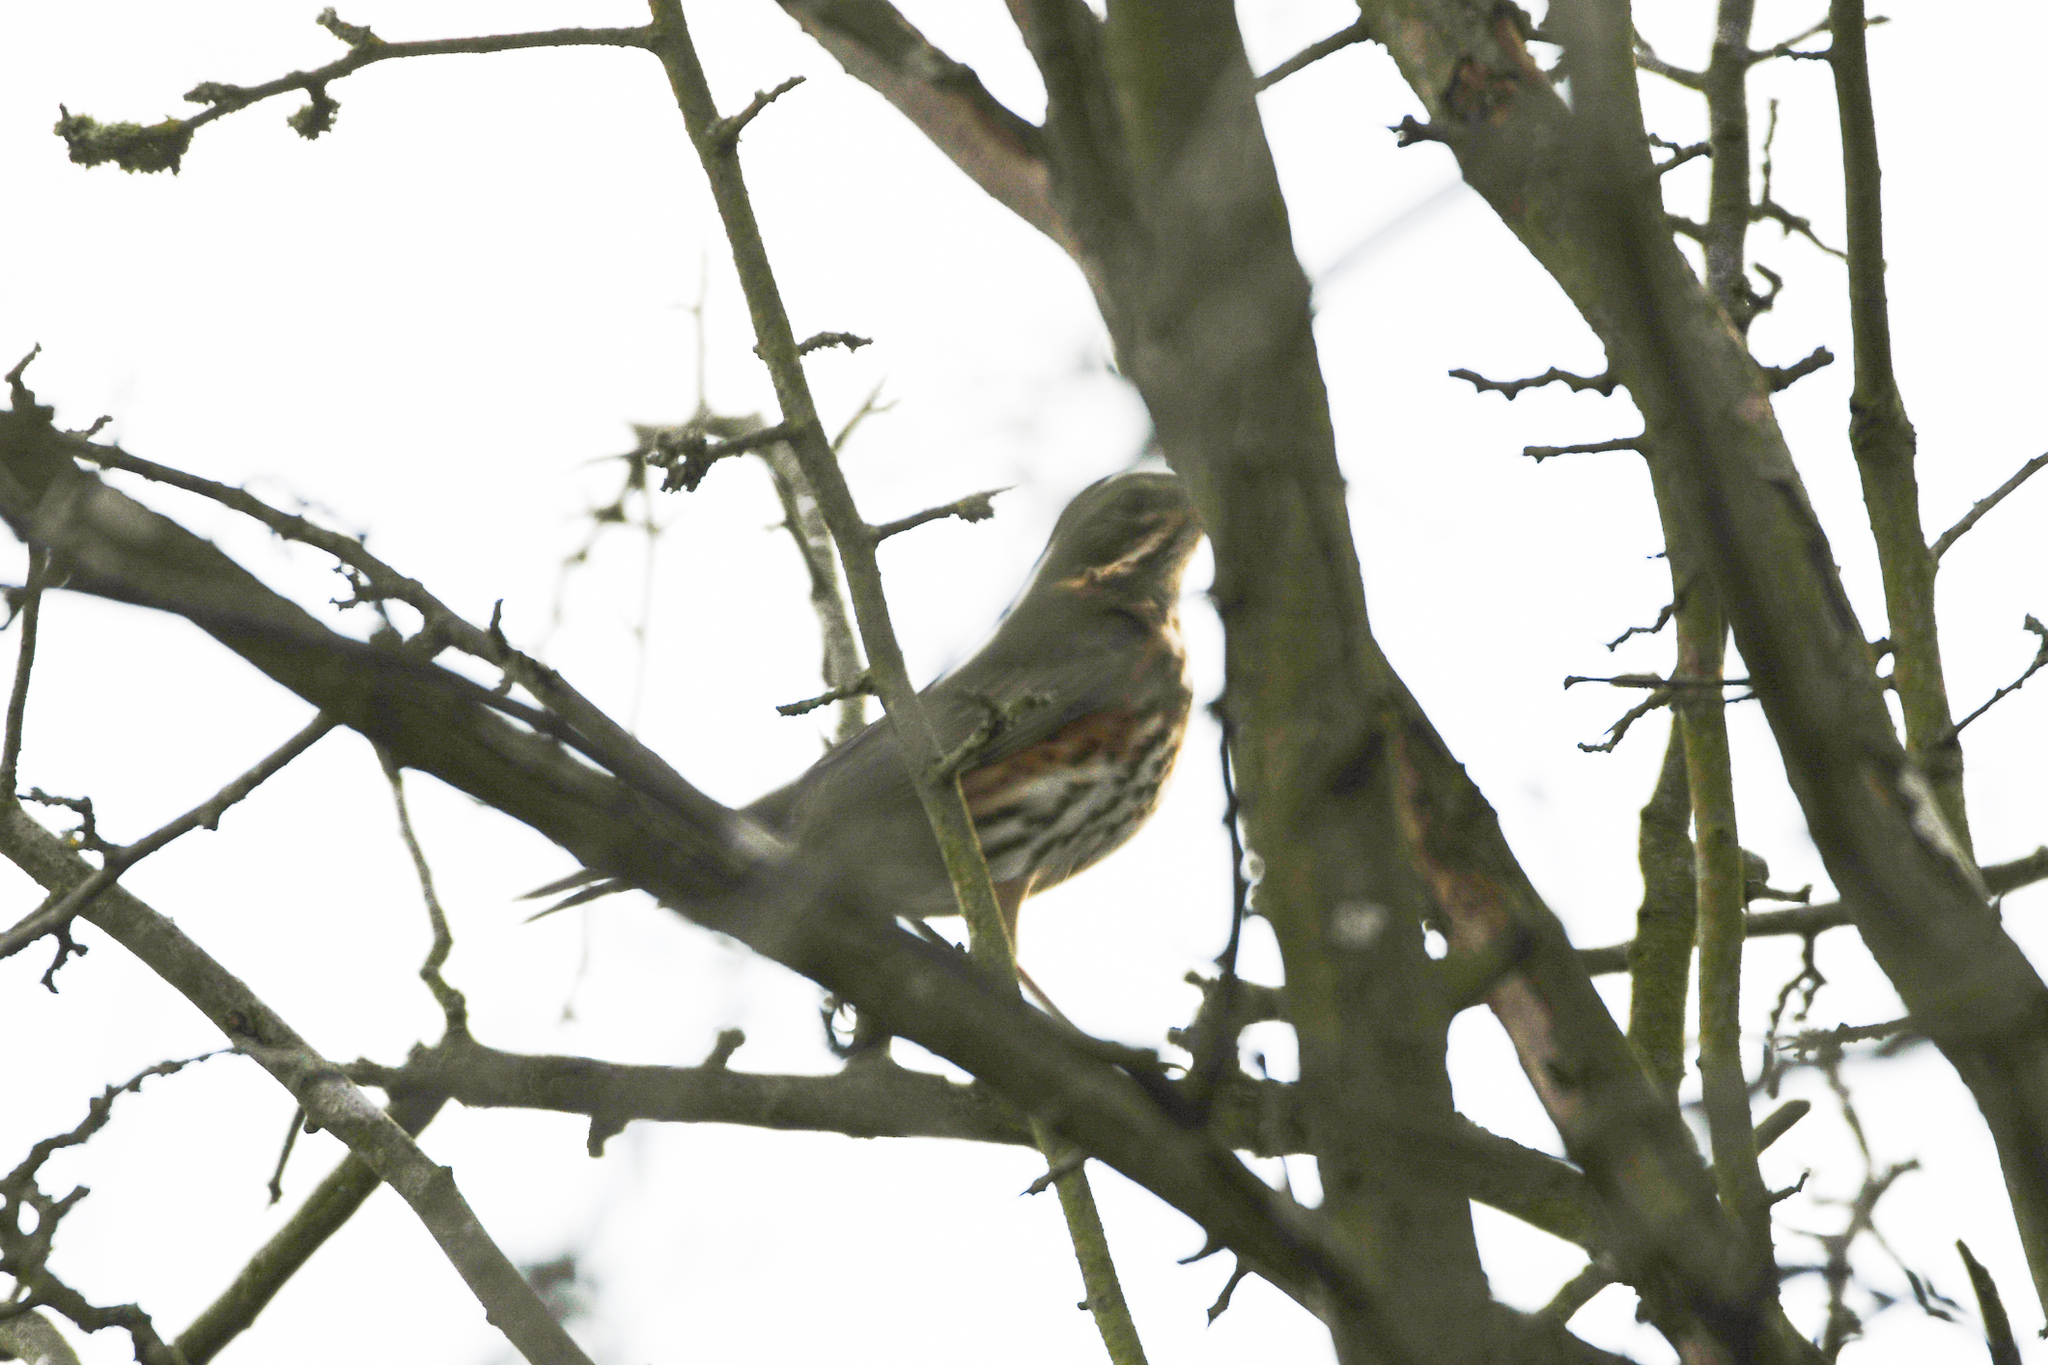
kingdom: Animalia
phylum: Chordata
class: Aves
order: Passeriformes
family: Turdidae
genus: Turdus
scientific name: Turdus iliacus
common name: Redwing
